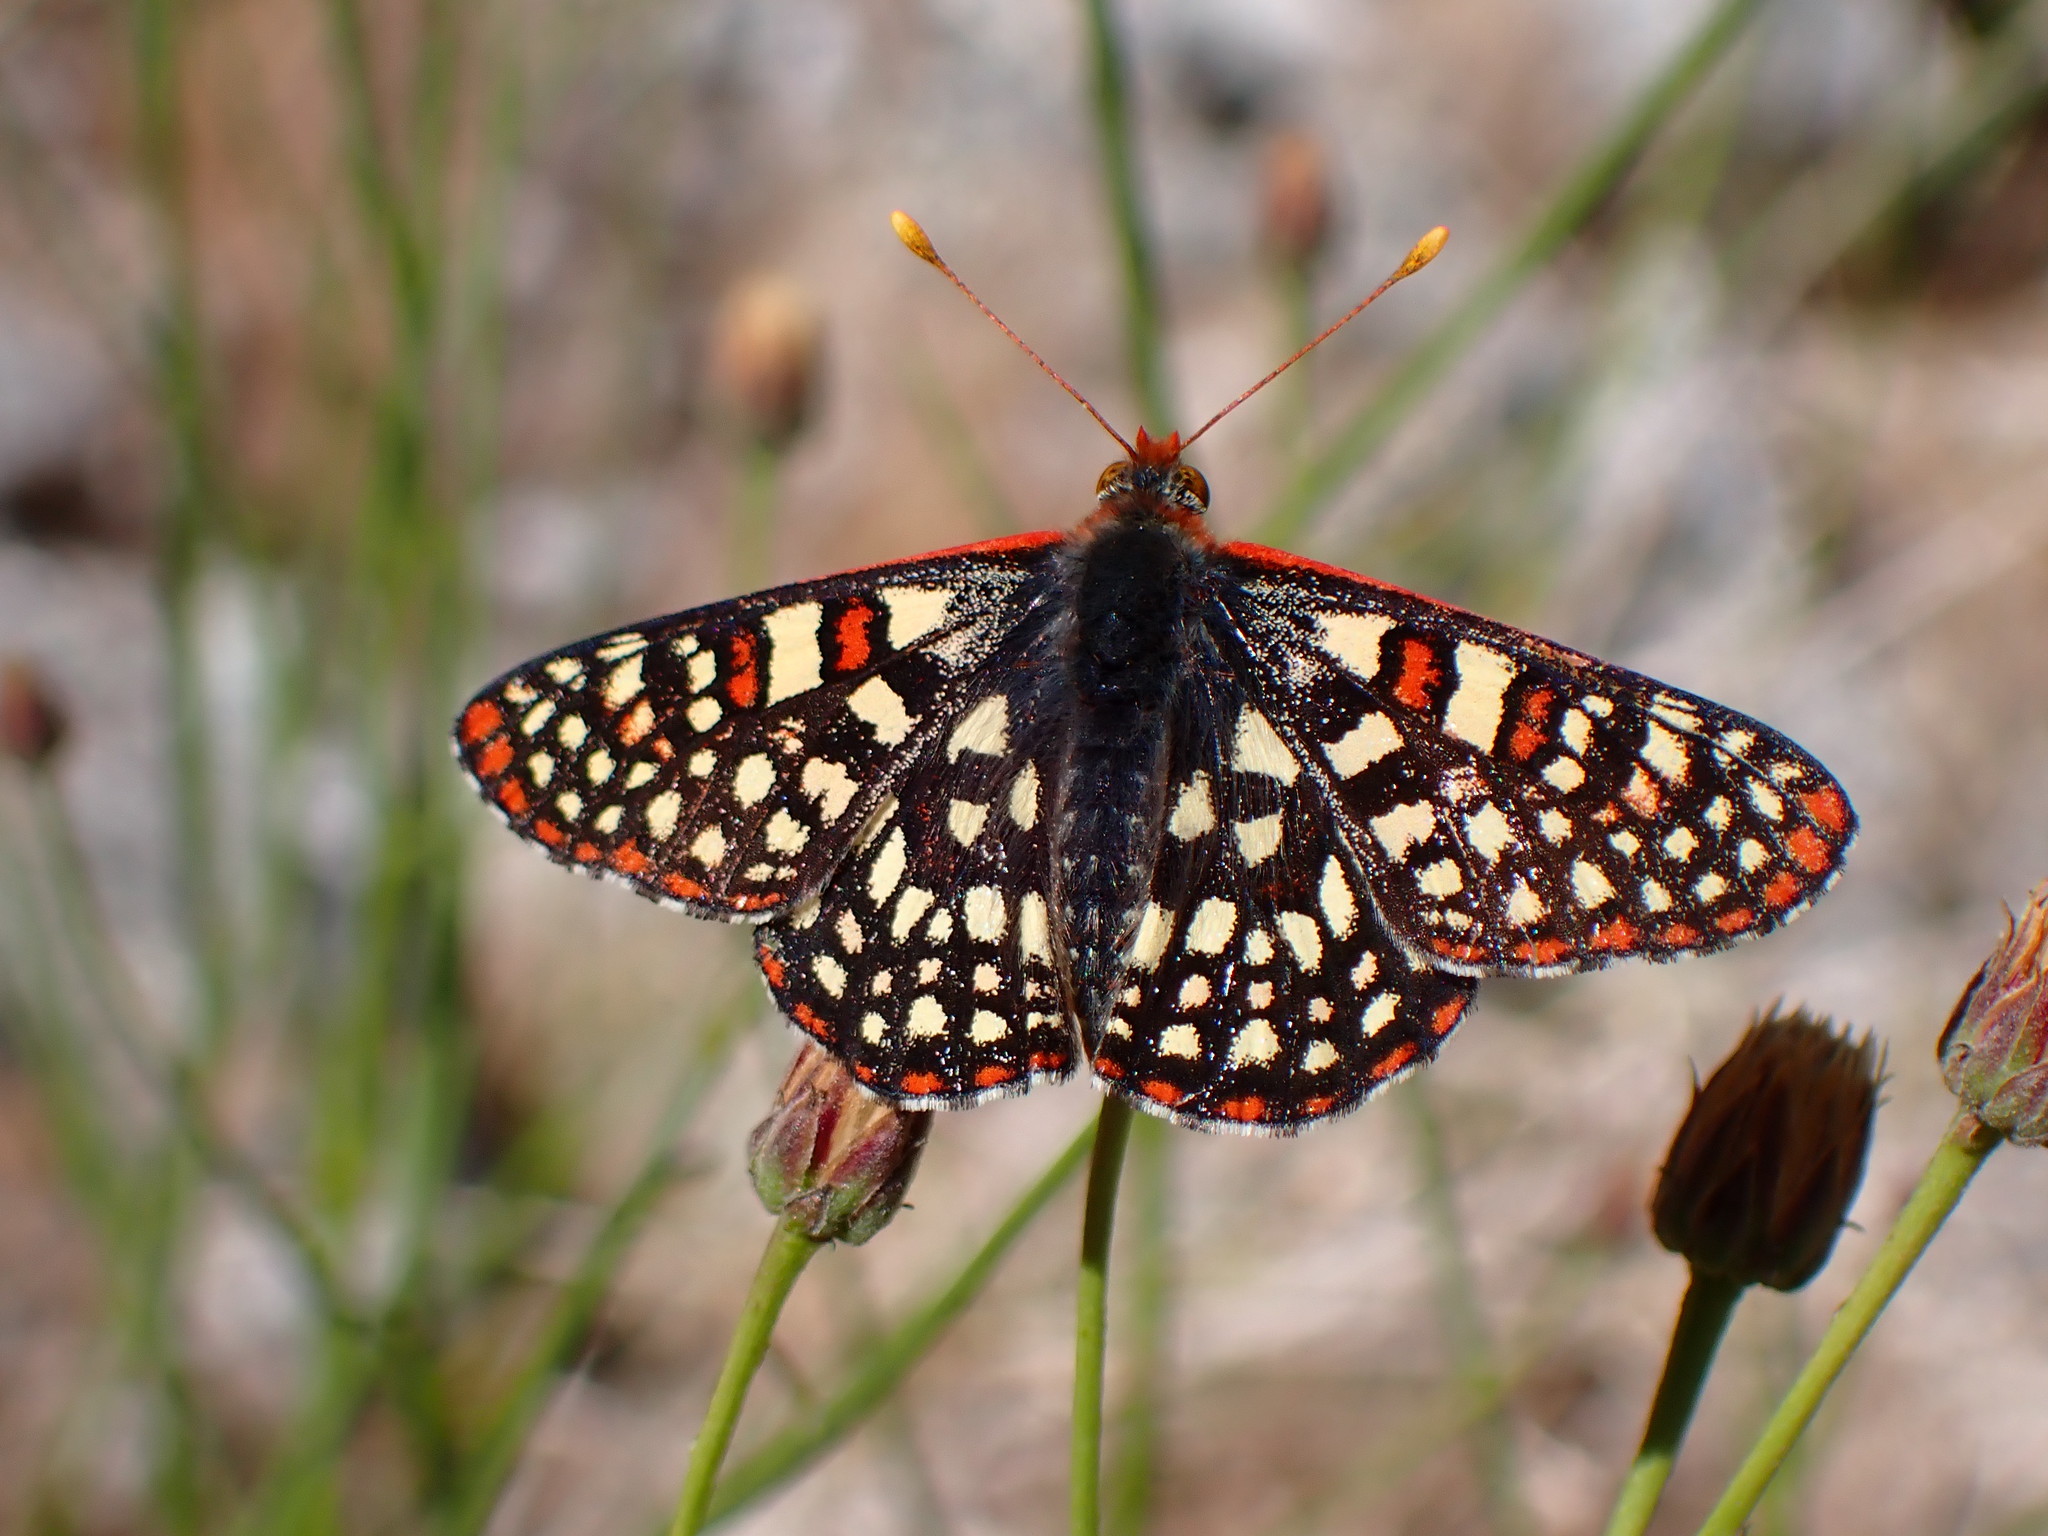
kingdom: Animalia
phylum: Arthropoda
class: Insecta
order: Lepidoptera
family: Nymphalidae
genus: Occidryas
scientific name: Occidryas chalcedona
